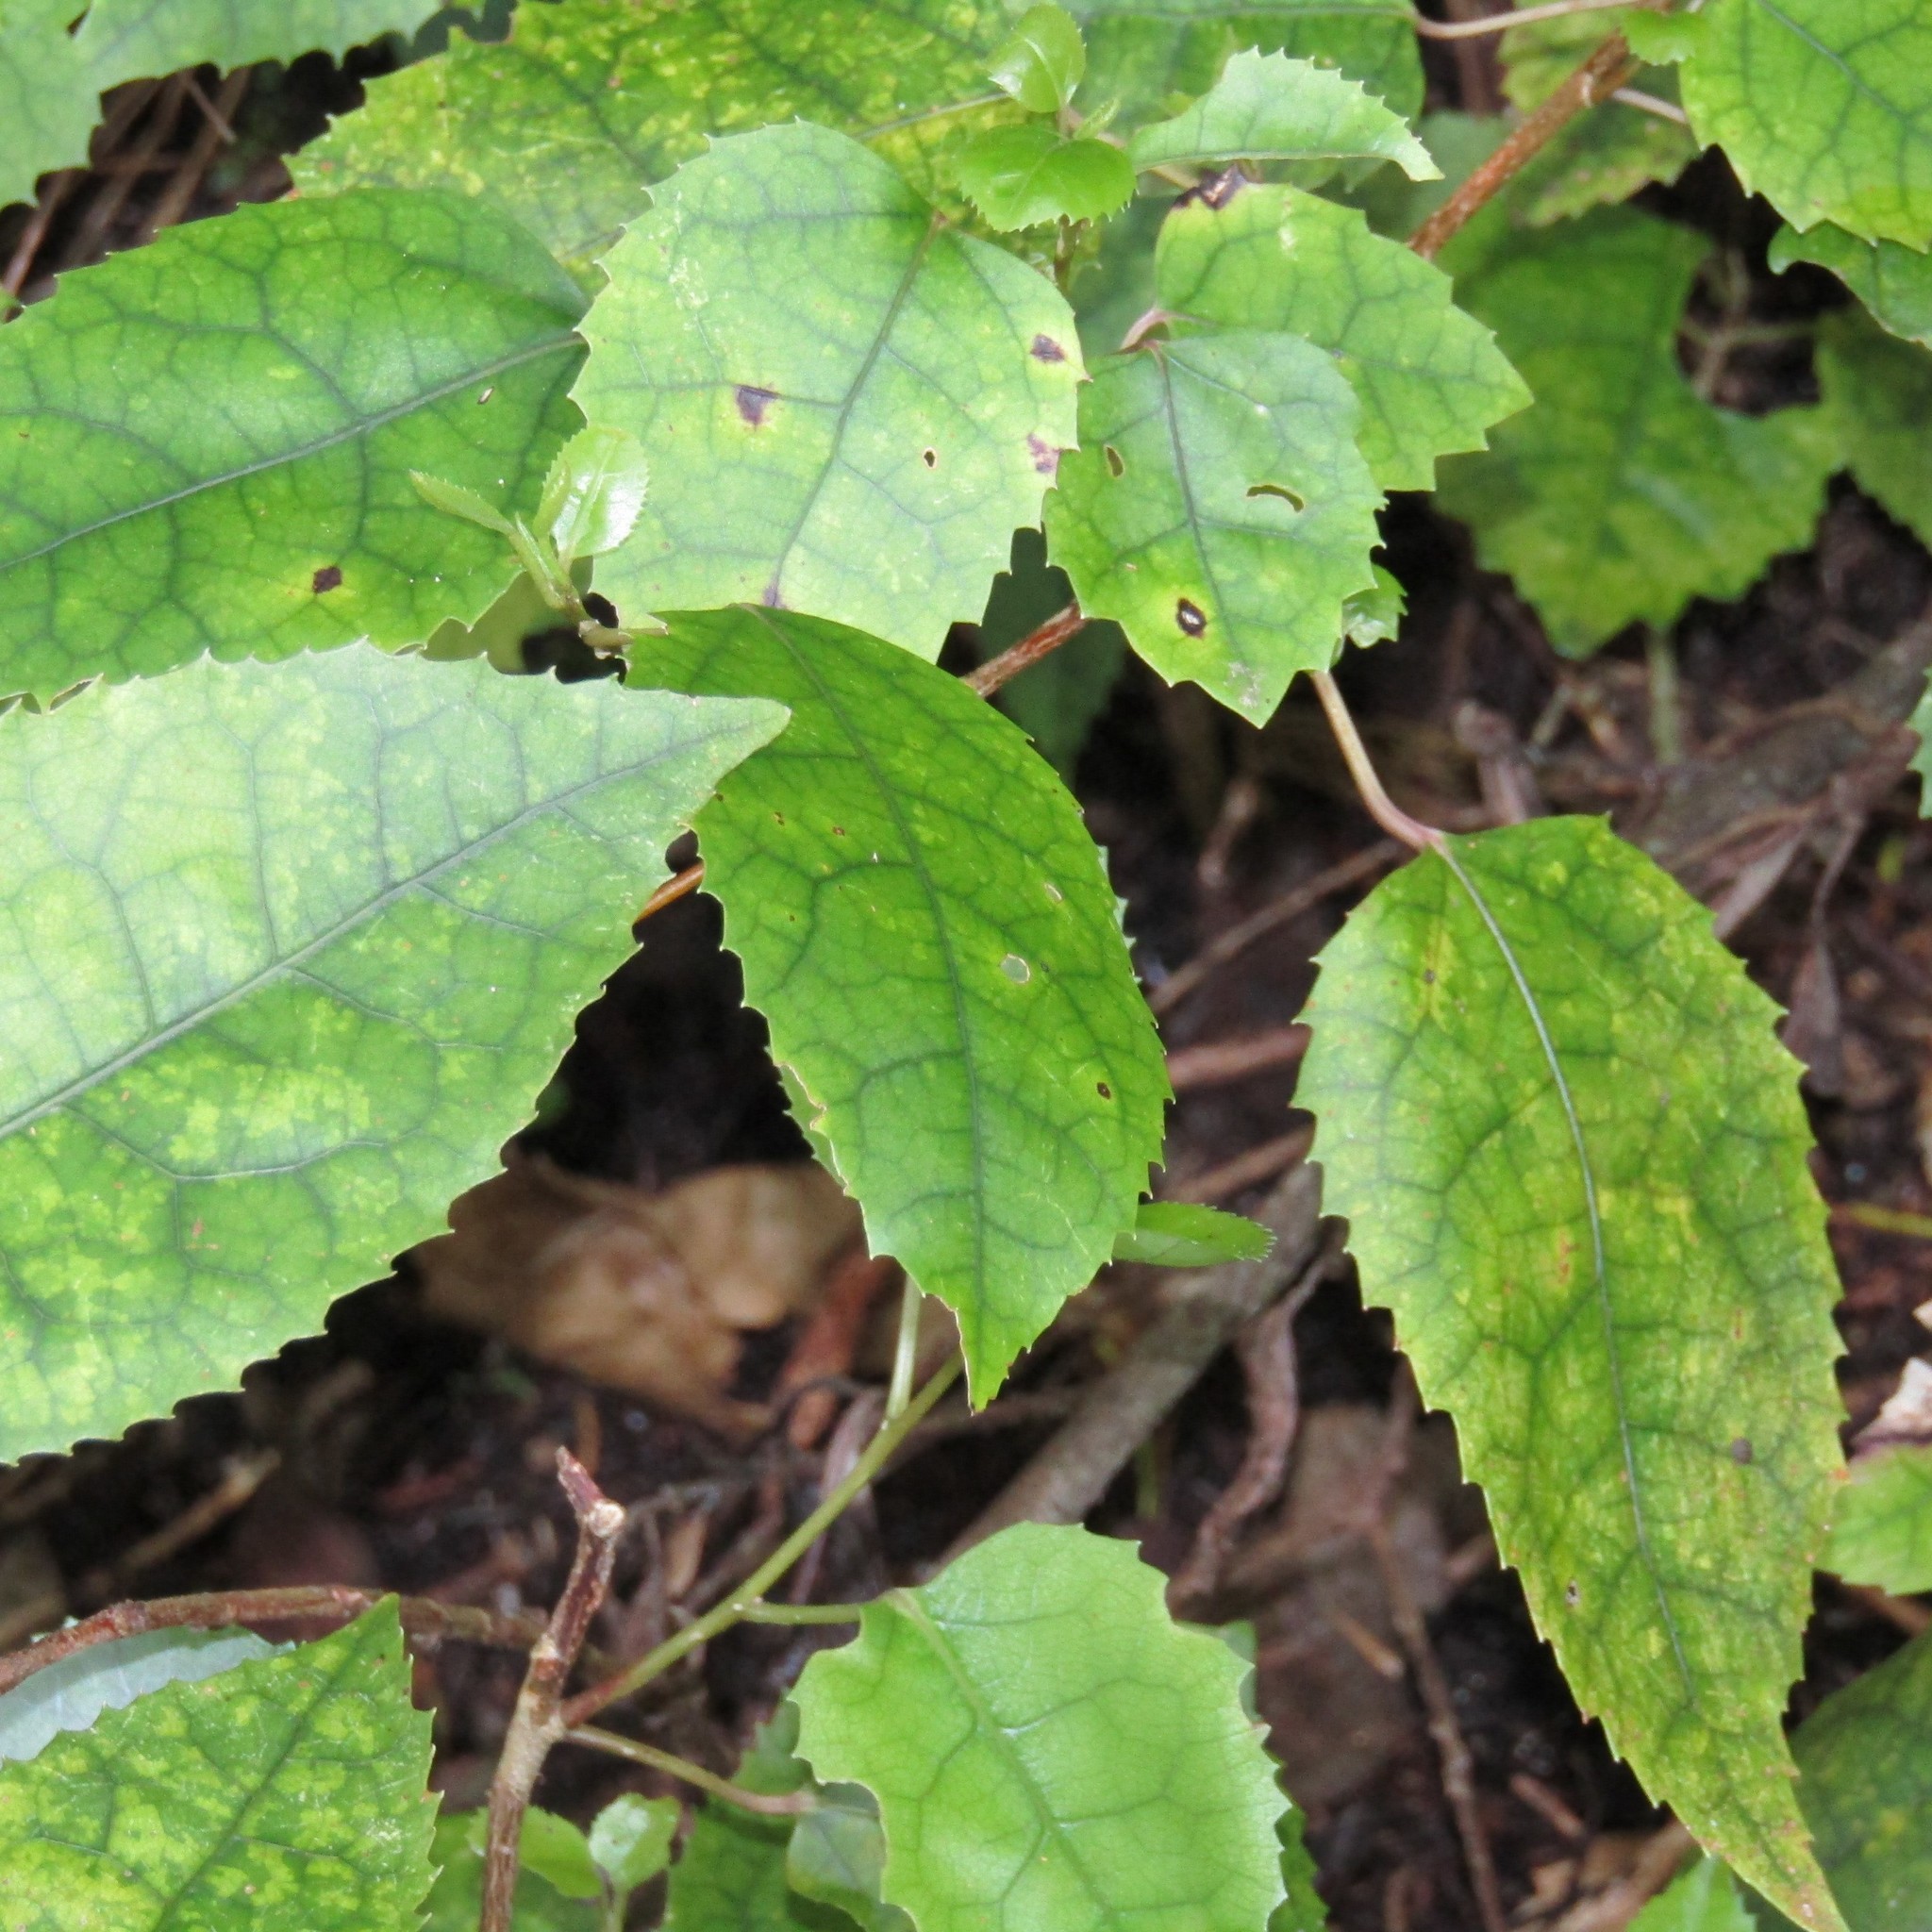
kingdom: Plantae
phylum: Tracheophyta
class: Magnoliopsida
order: Malvales
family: Malvaceae
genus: Hoheria
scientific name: Hoheria populnea
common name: Lacebark
